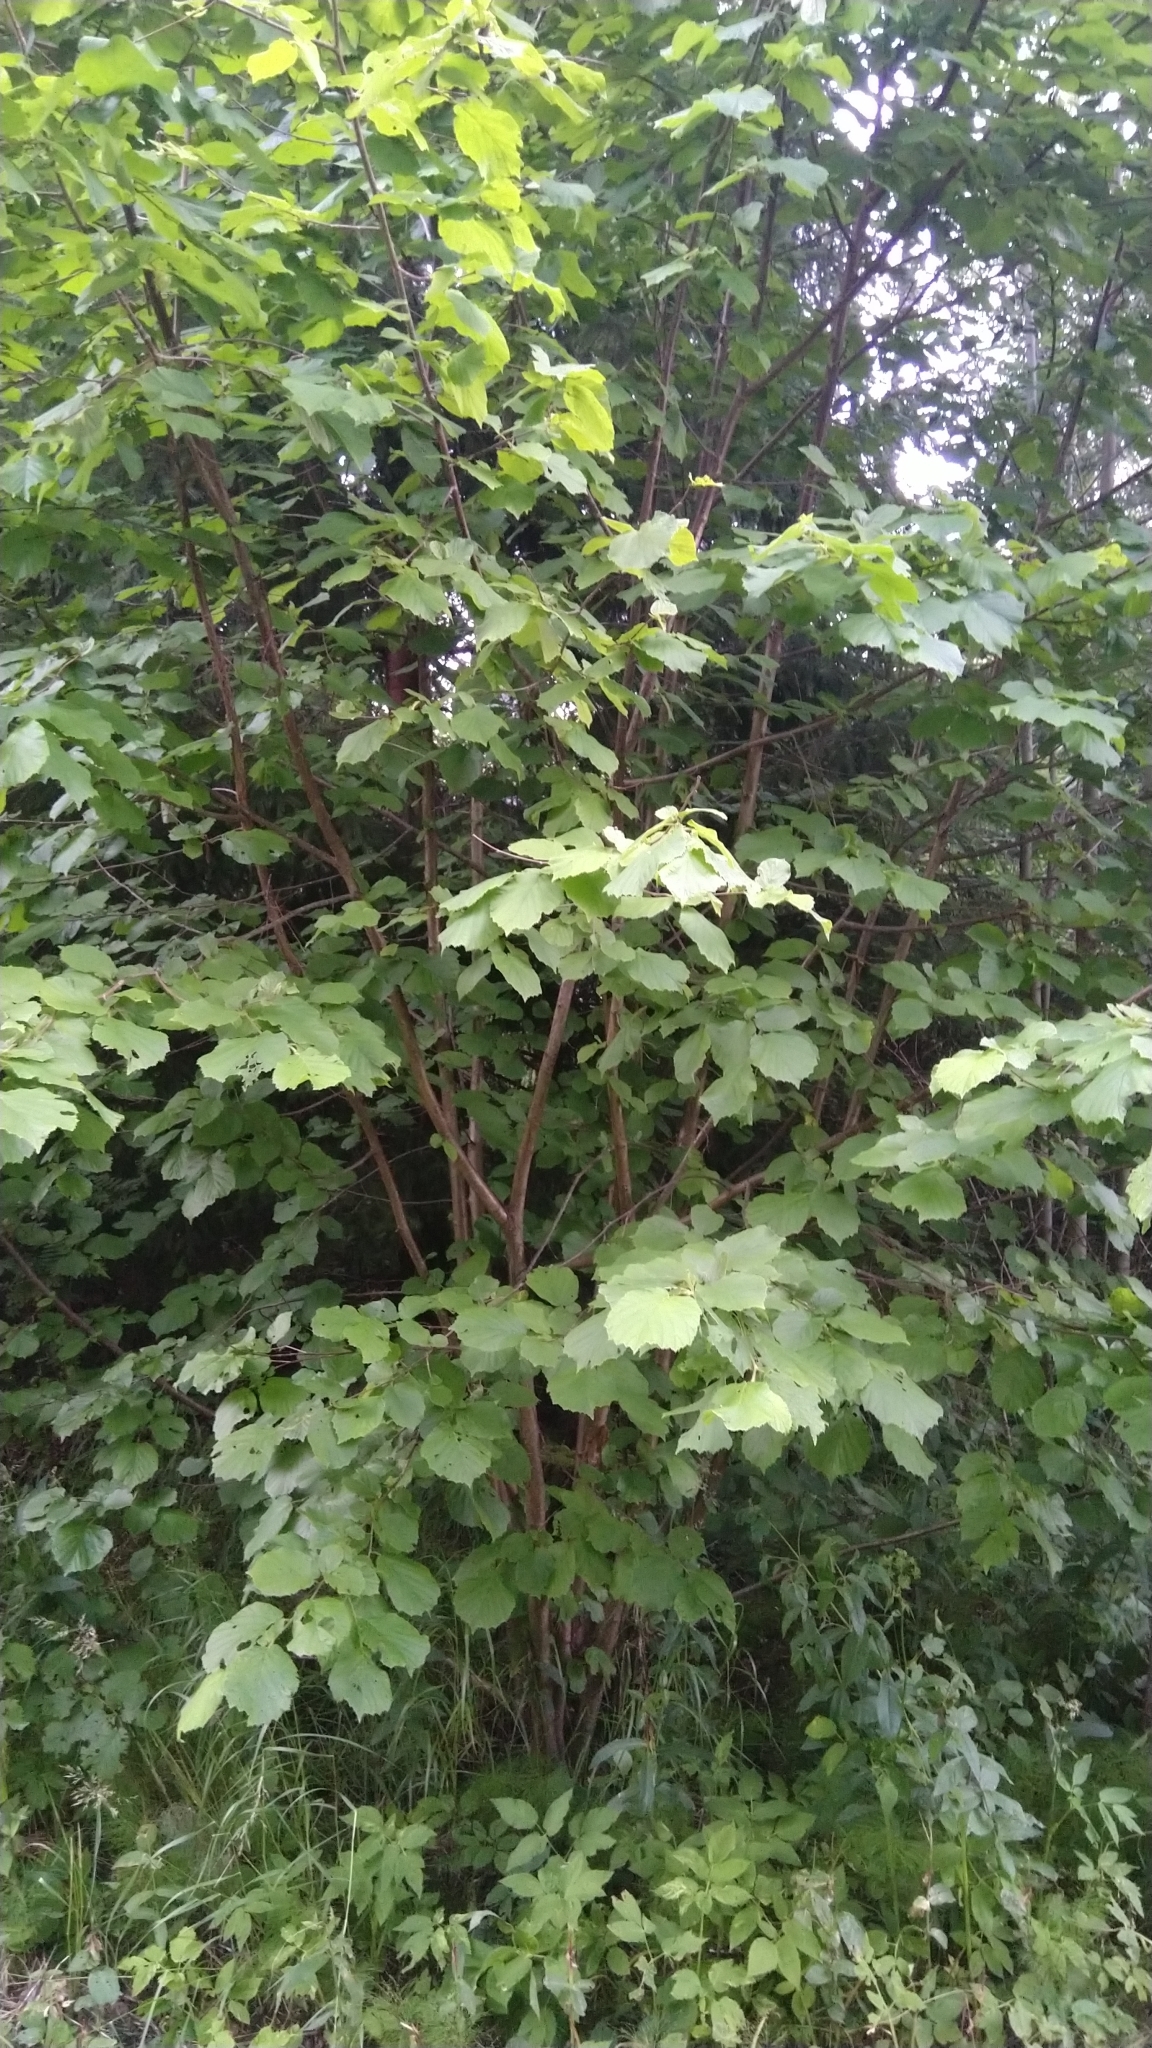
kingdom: Plantae
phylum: Tracheophyta
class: Magnoliopsida
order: Fagales
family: Betulaceae
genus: Corylus
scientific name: Corylus avellana
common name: European hazel
